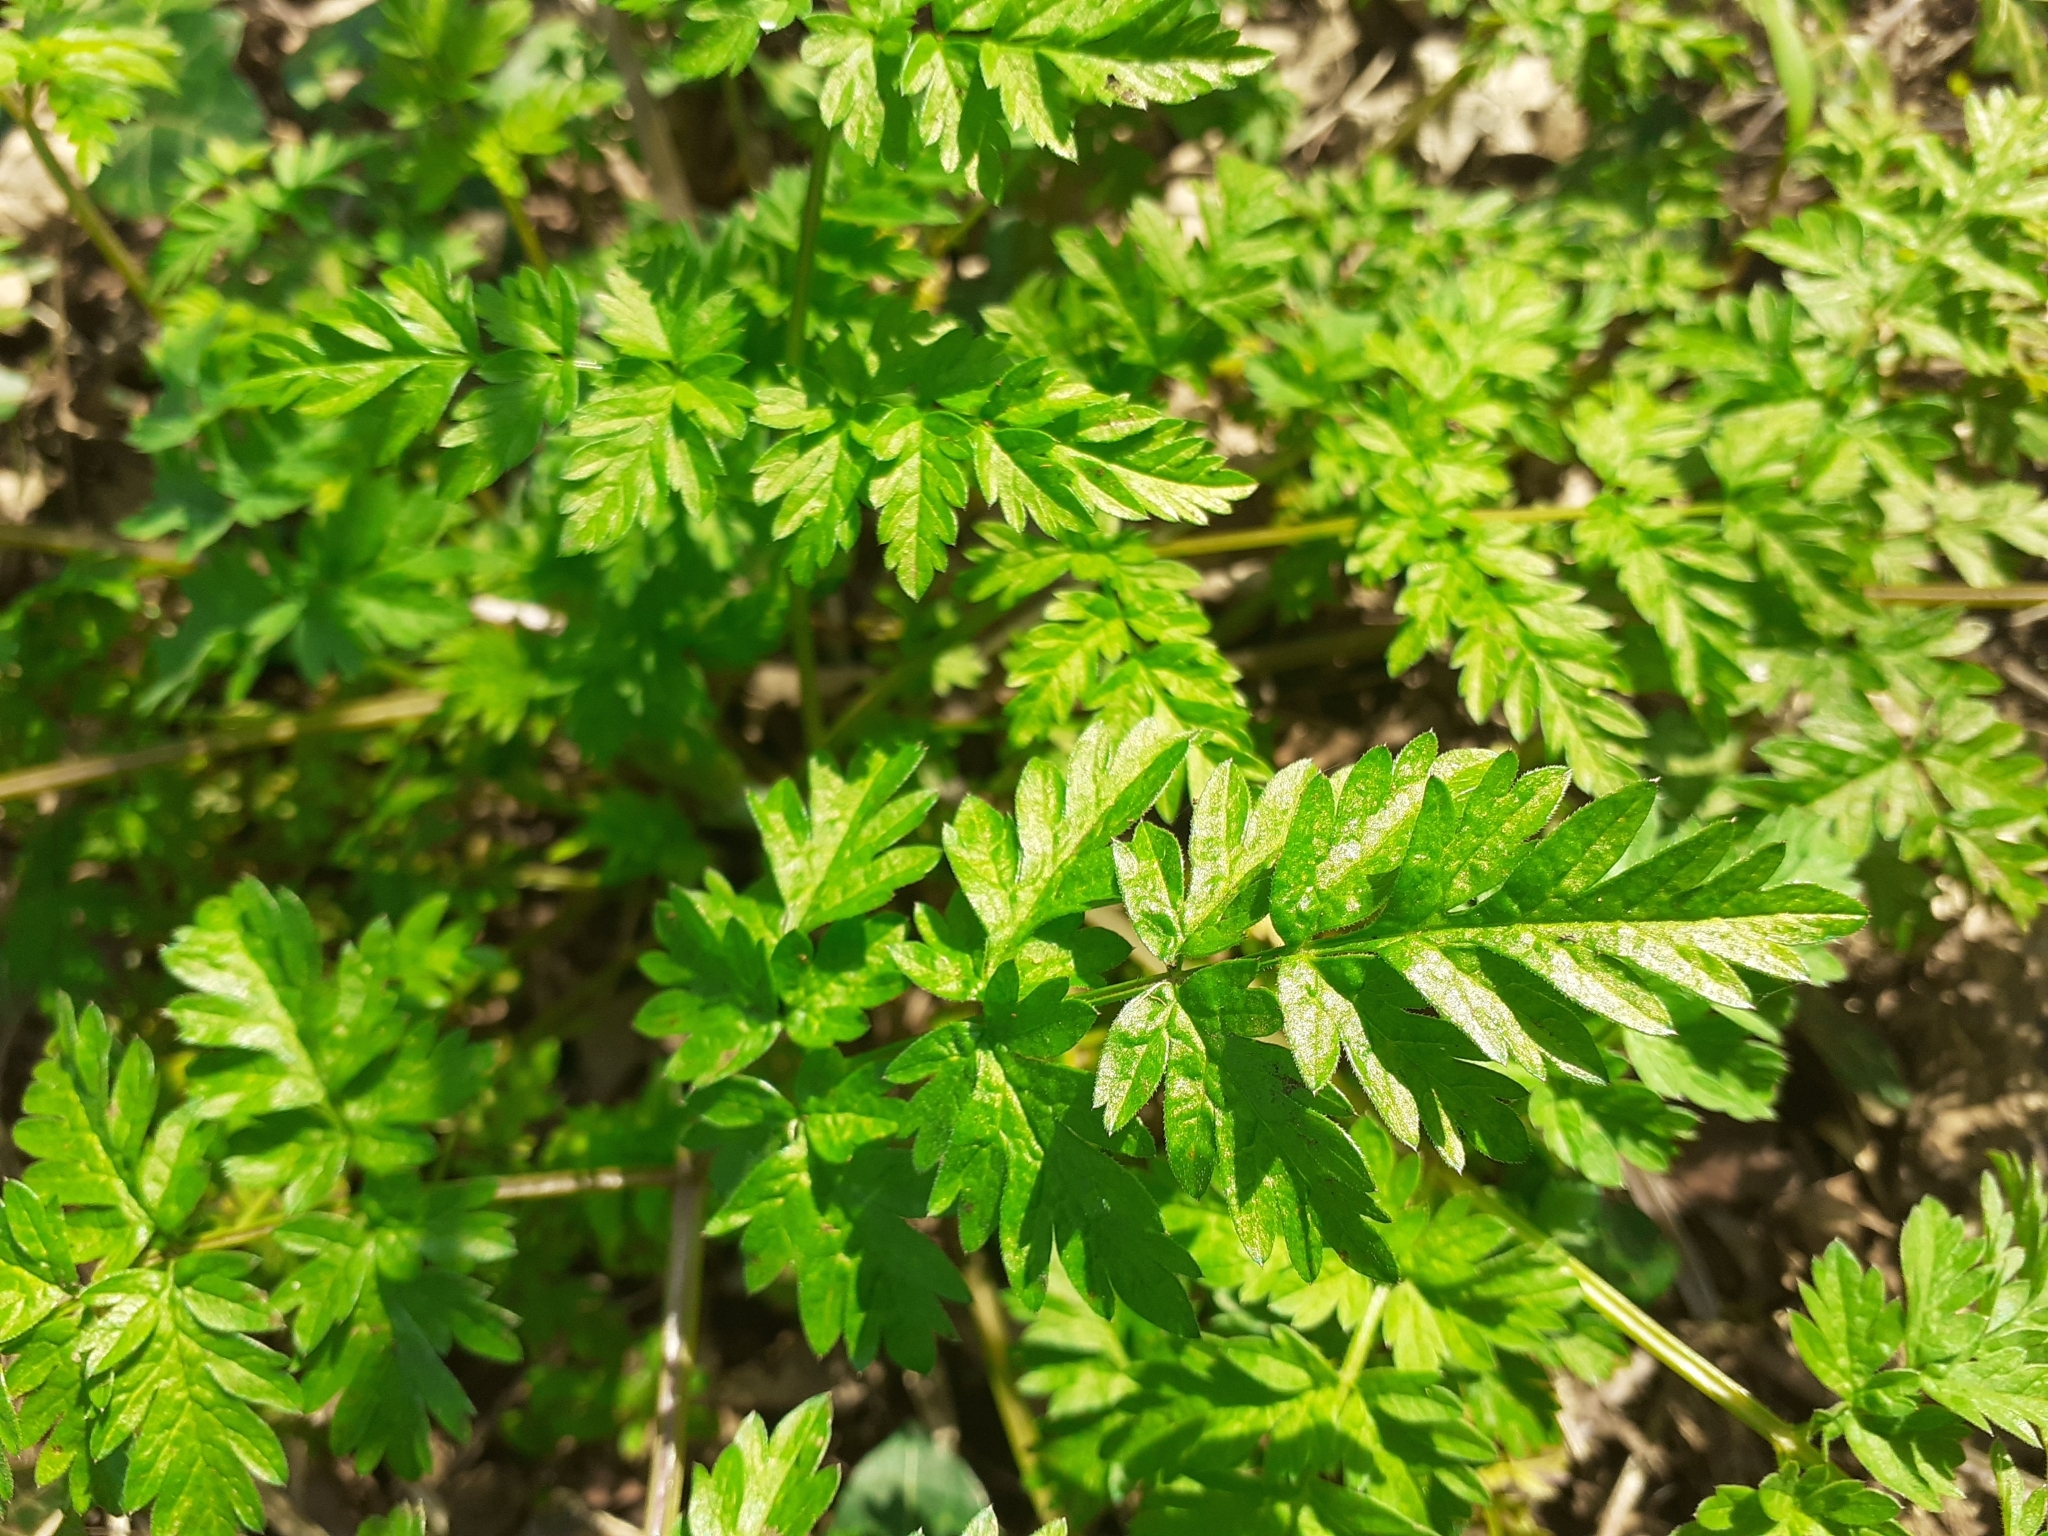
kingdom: Plantae
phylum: Tracheophyta
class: Magnoliopsida
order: Apiales
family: Apiaceae
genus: Anthriscus
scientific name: Anthriscus sylvestris
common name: Cow parsley
